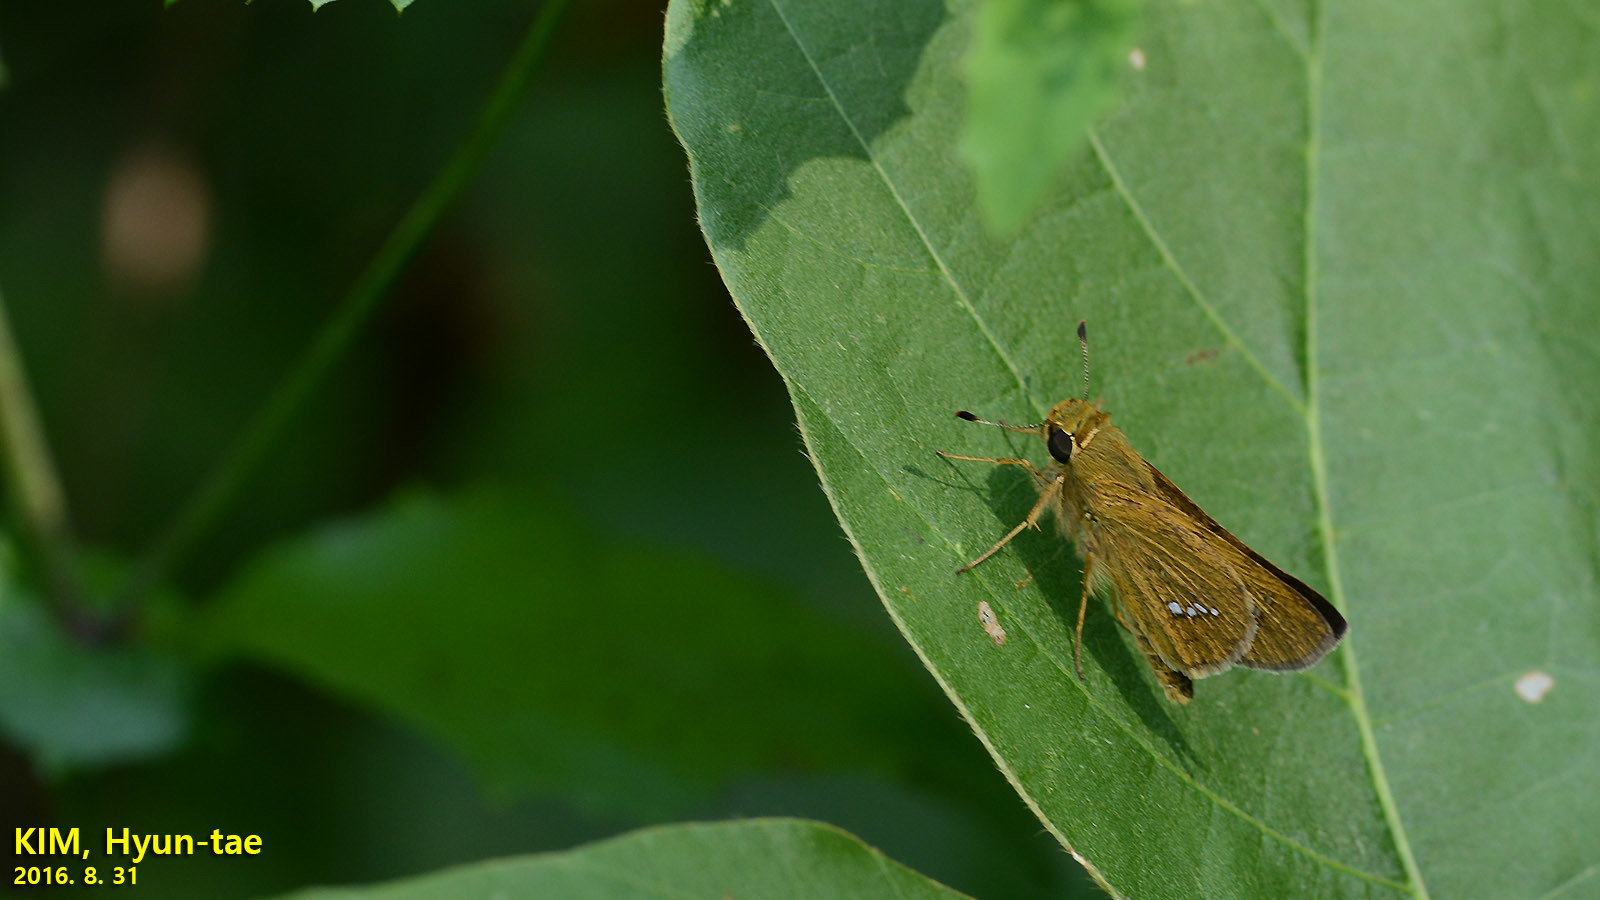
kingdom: Animalia
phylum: Arthropoda
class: Insecta
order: Lepidoptera
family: Hesperiidae
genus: Parnara
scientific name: Parnara guttatus
